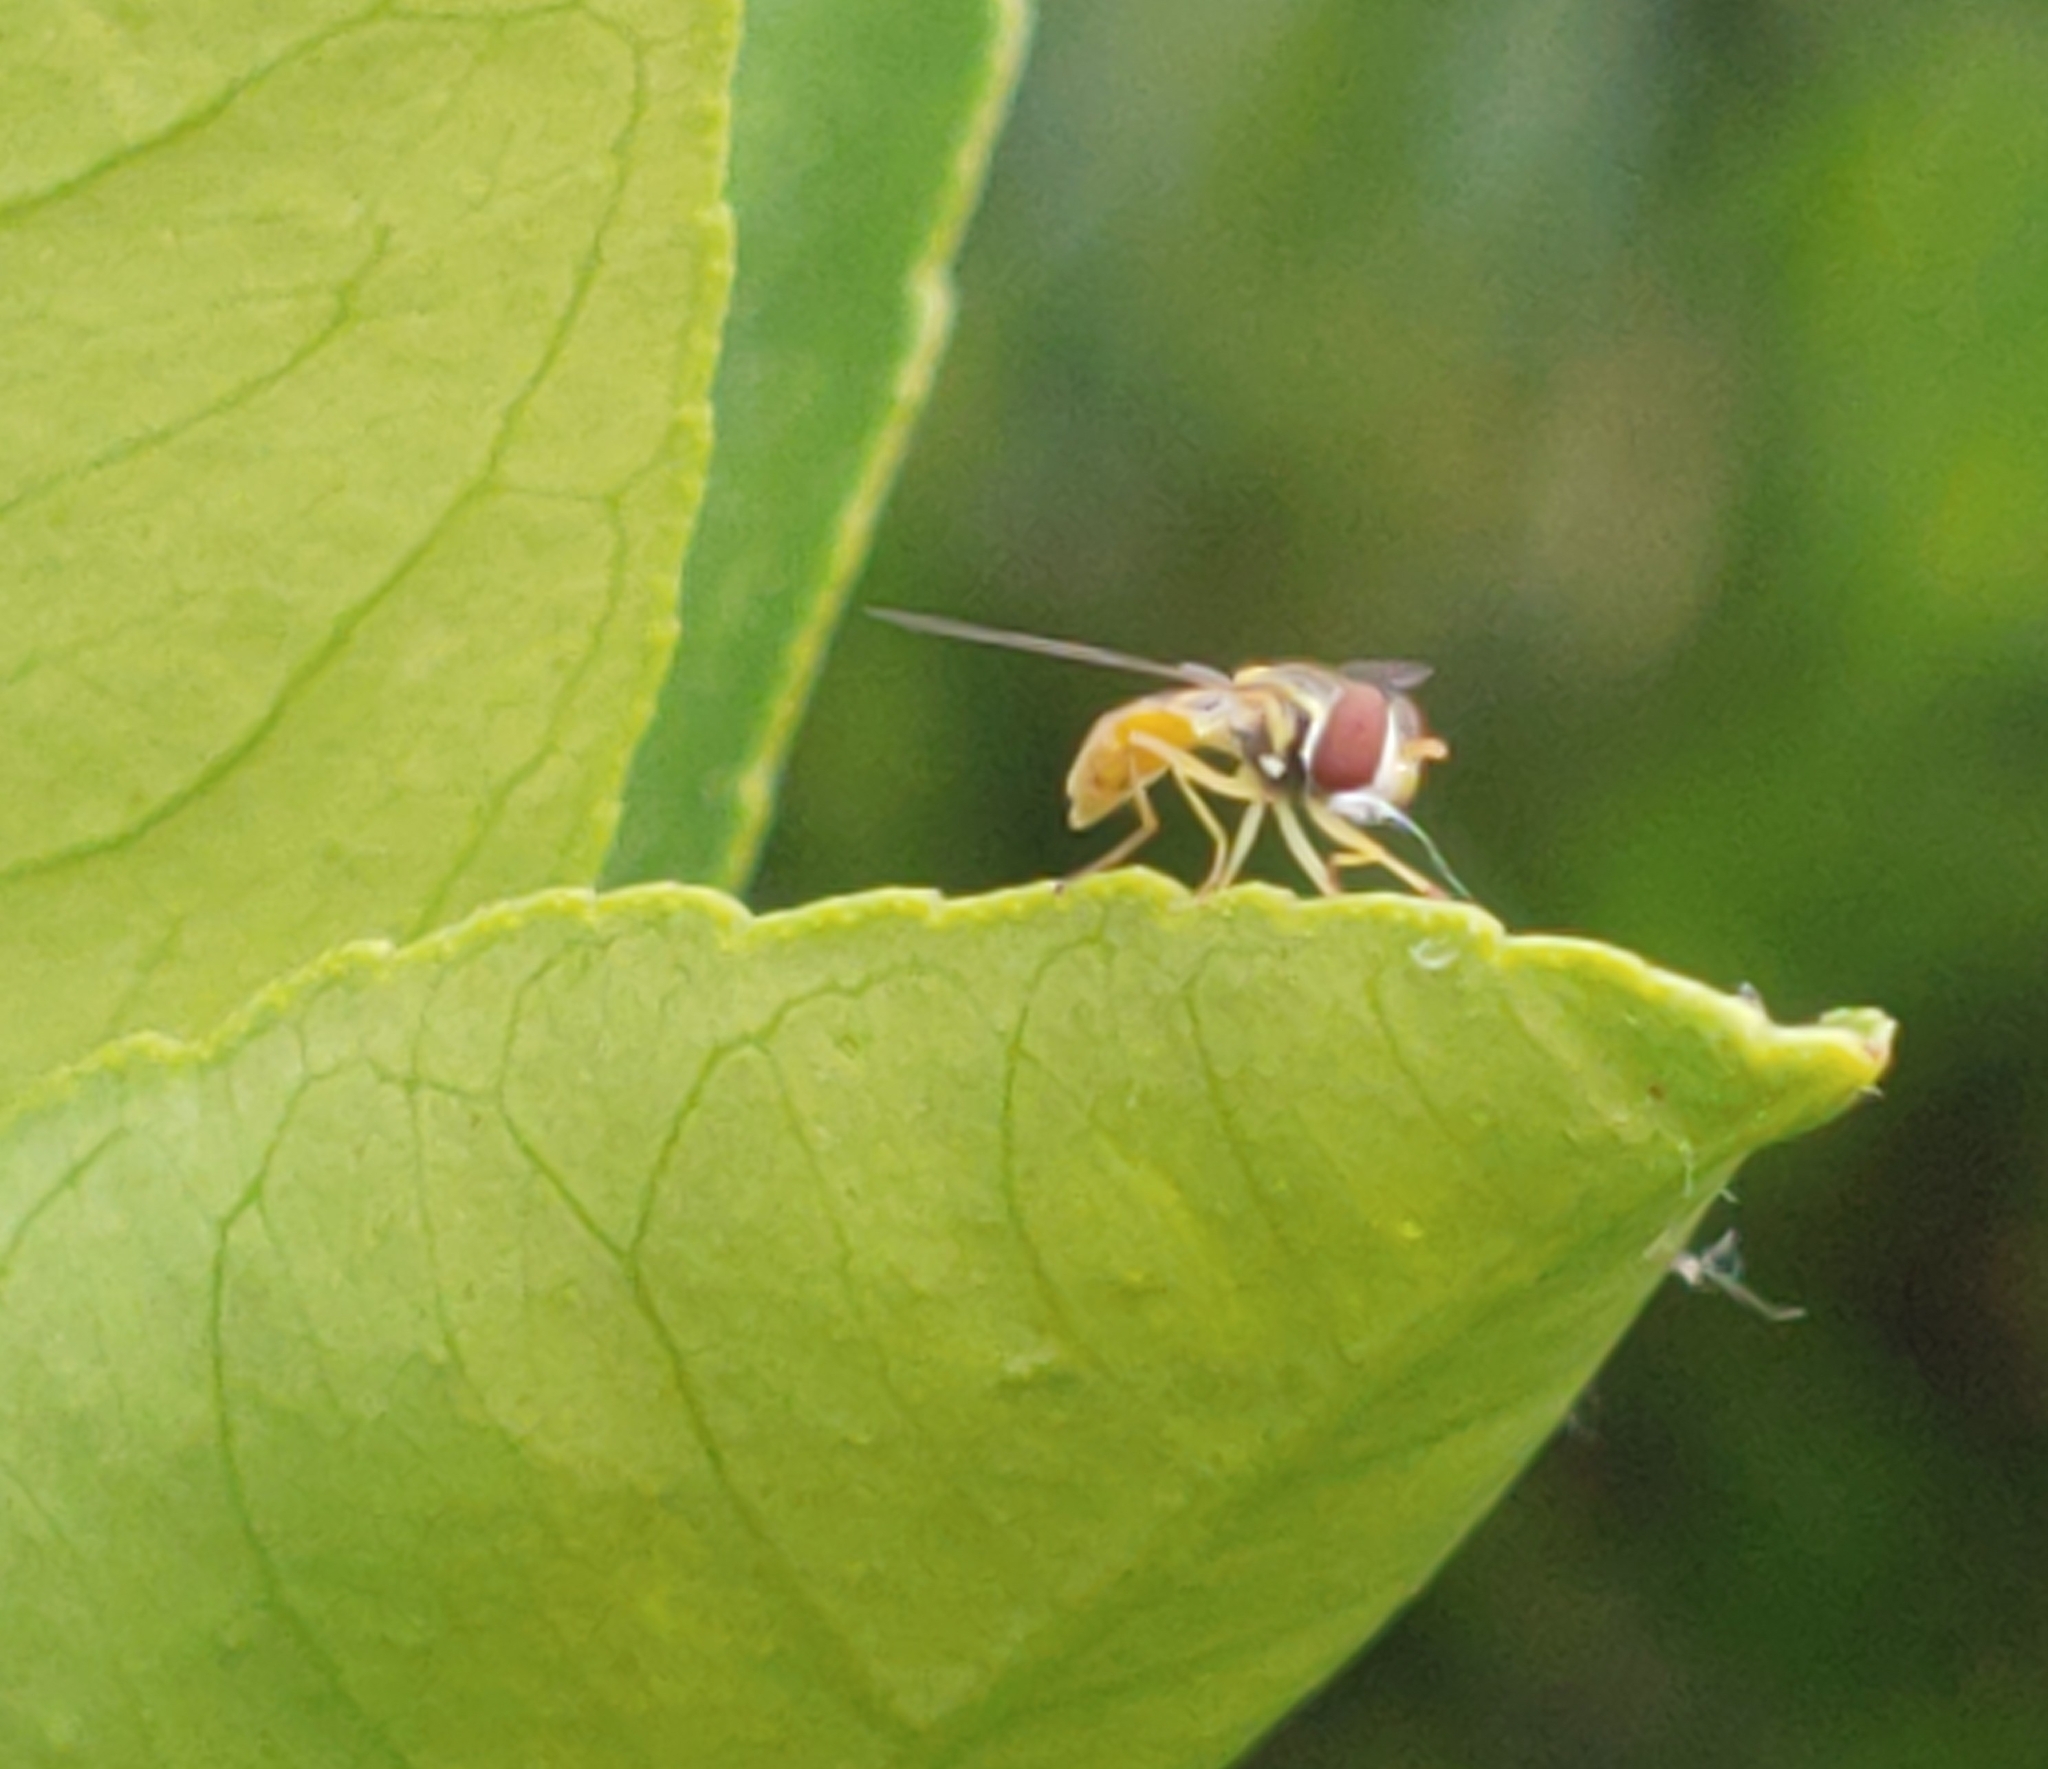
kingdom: Animalia
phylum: Arthropoda
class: Insecta
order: Diptera
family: Syrphidae
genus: Toxomerus
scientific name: Toxomerus marginatus
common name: Syrphid fly
